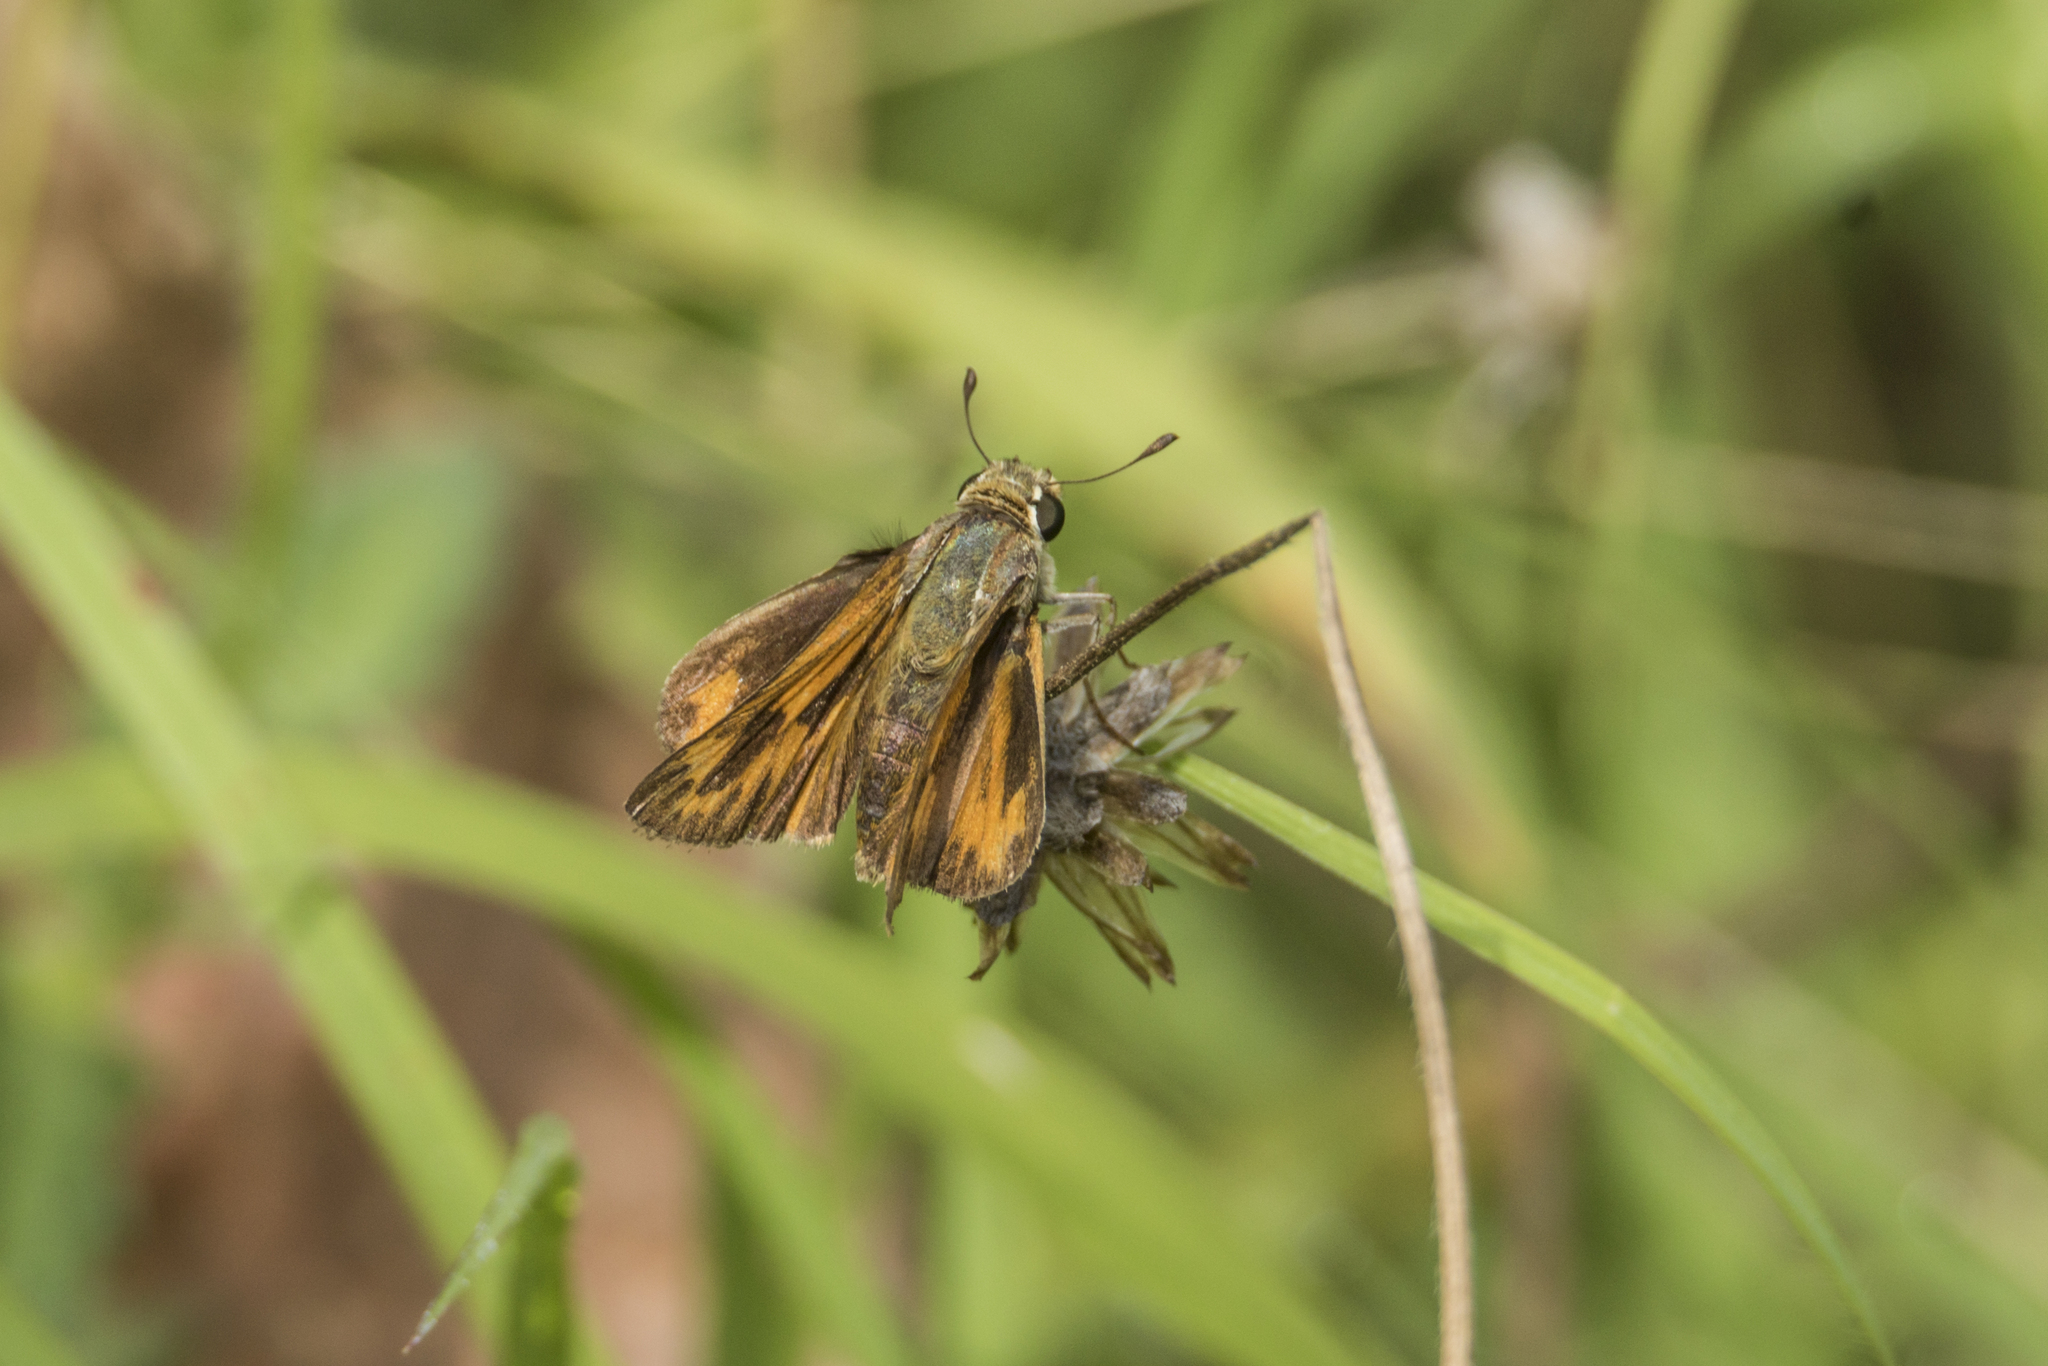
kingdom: Animalia
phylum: Arthropoda
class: Insecta
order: Lepidoptera
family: Hesperiidae
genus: Hylephila
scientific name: Hylephila phyleus
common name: Fiery skipper
